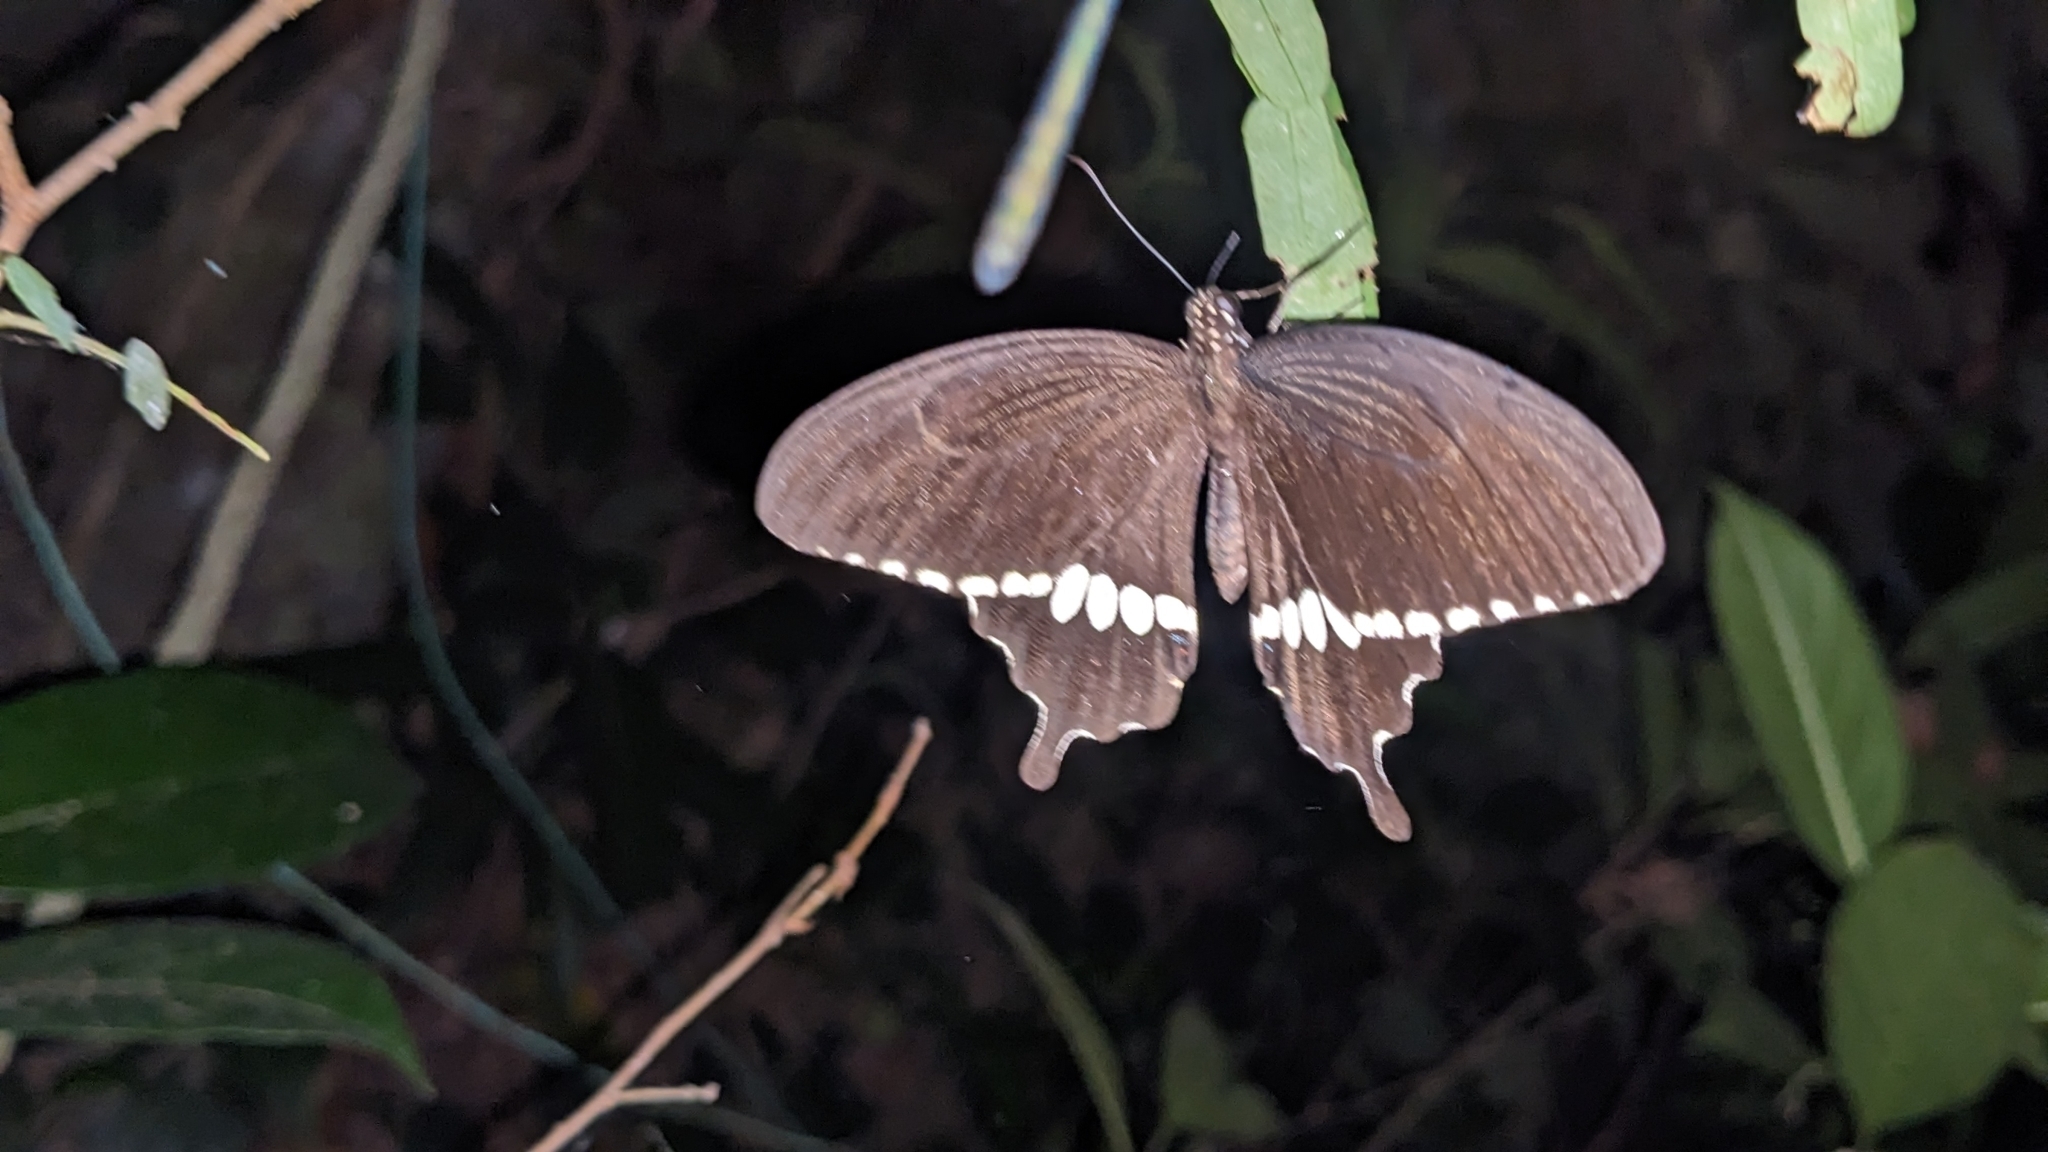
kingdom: Animalia
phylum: Arthropoda
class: Insecta
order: Lepidoptera
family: Papilionidae
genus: Papilio
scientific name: Papilio polytes
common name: Common mormon
